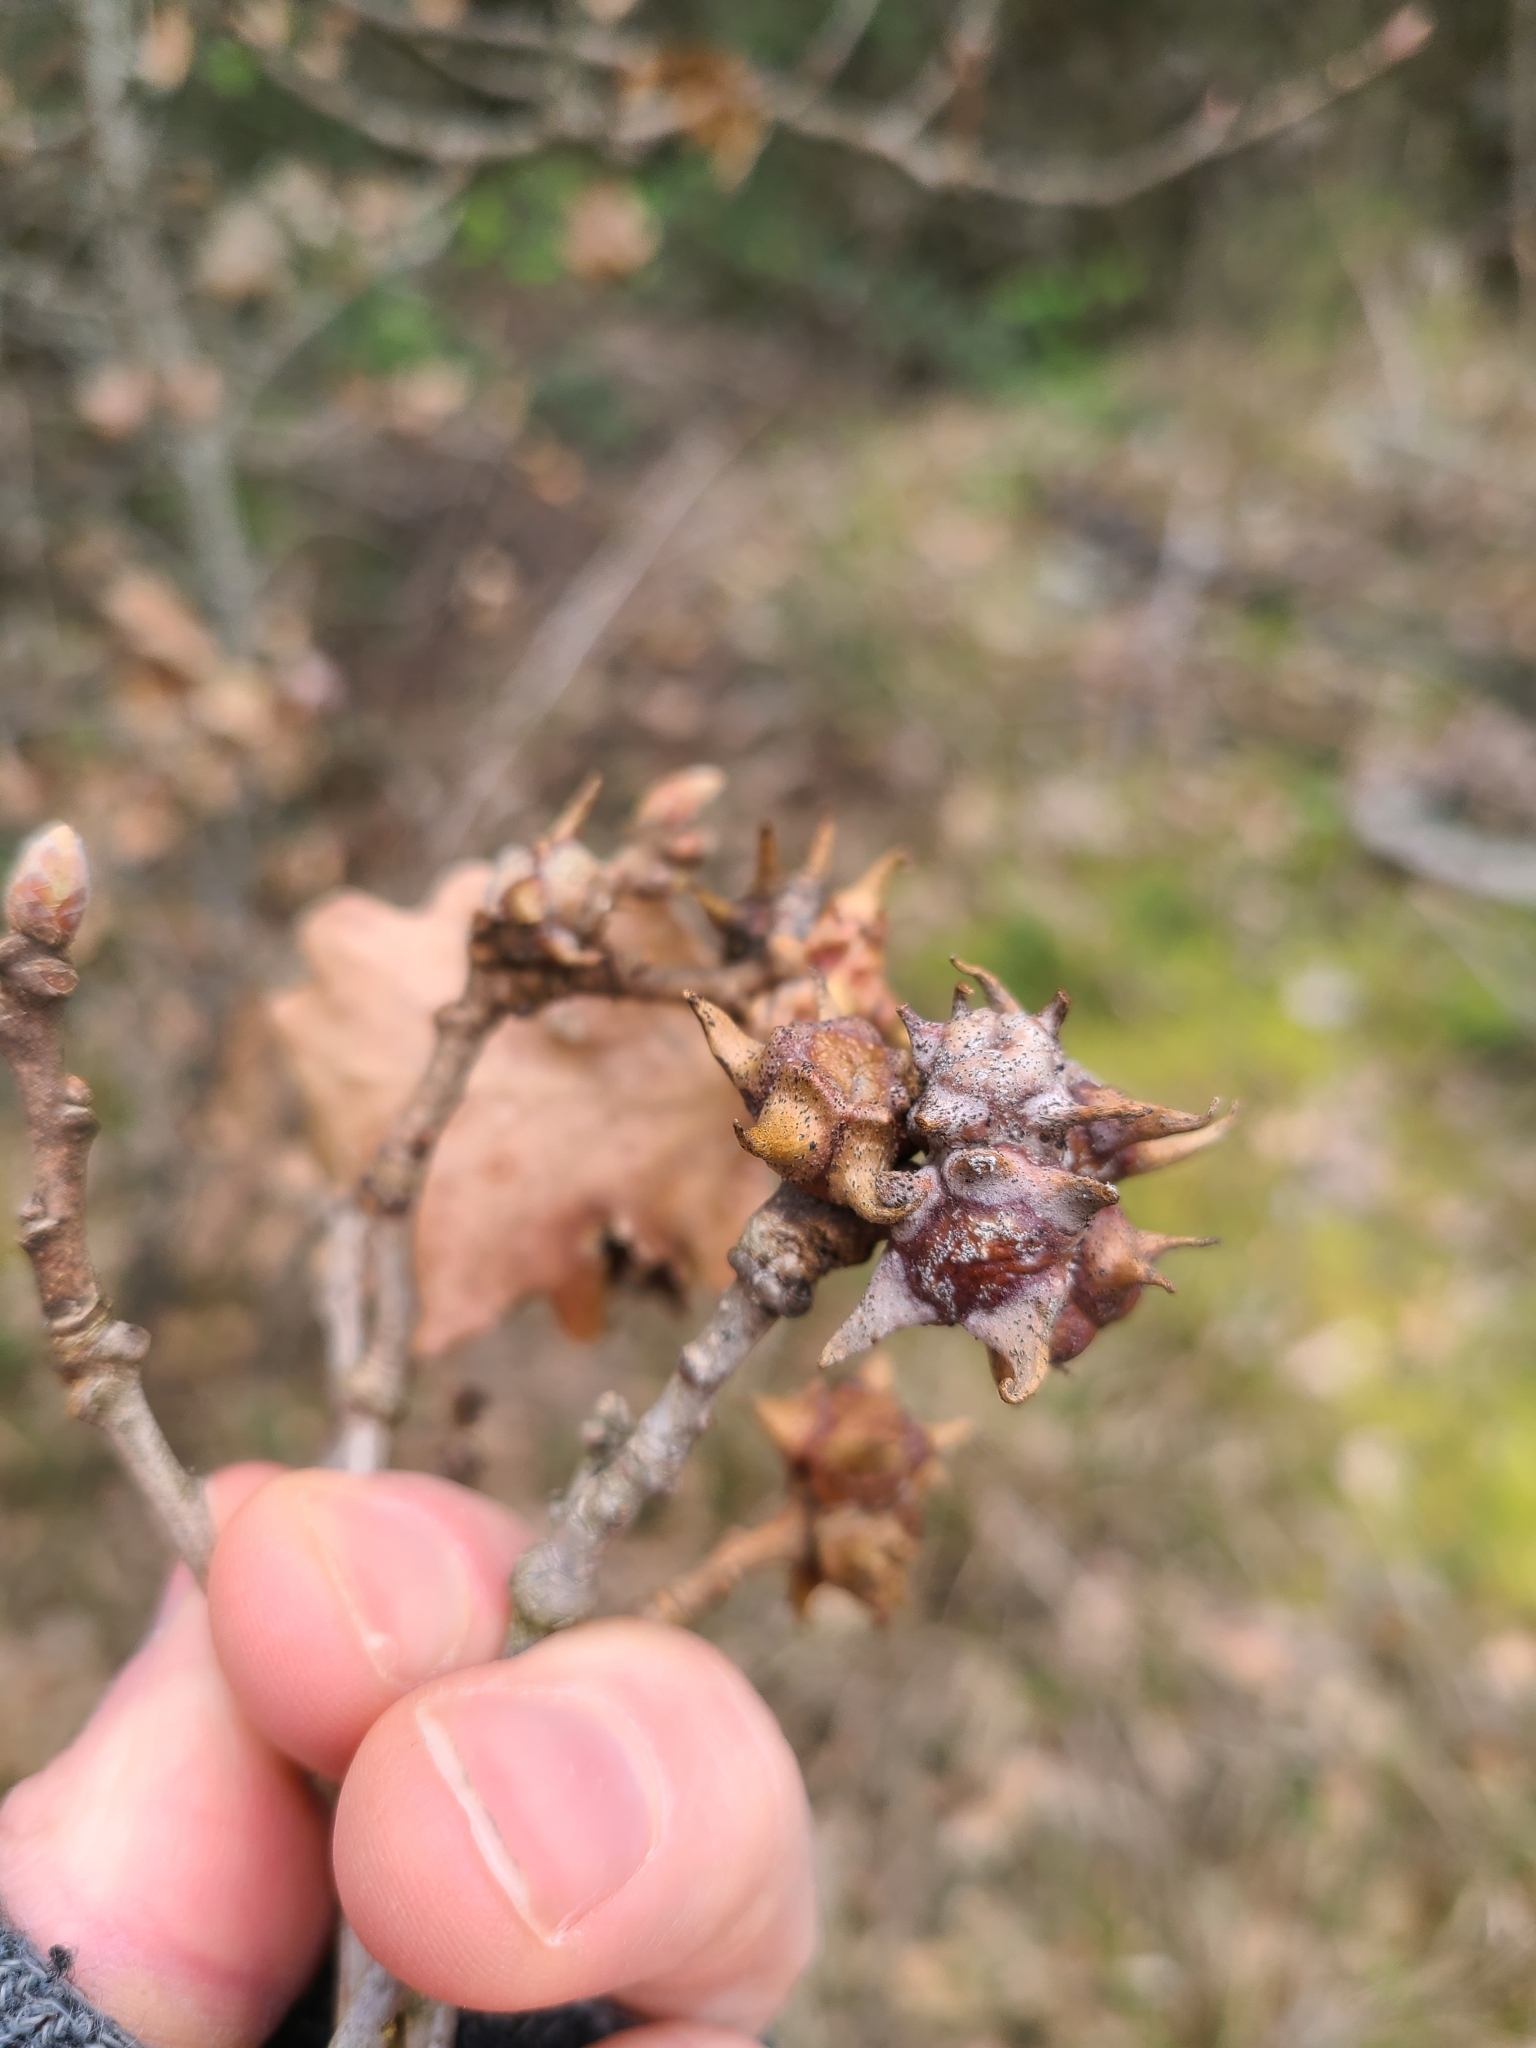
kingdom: Animalia
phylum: Arthropoda
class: Insecta
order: Hymenoptera
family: Cynipidae
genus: Andricus
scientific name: Andricus coronatus
